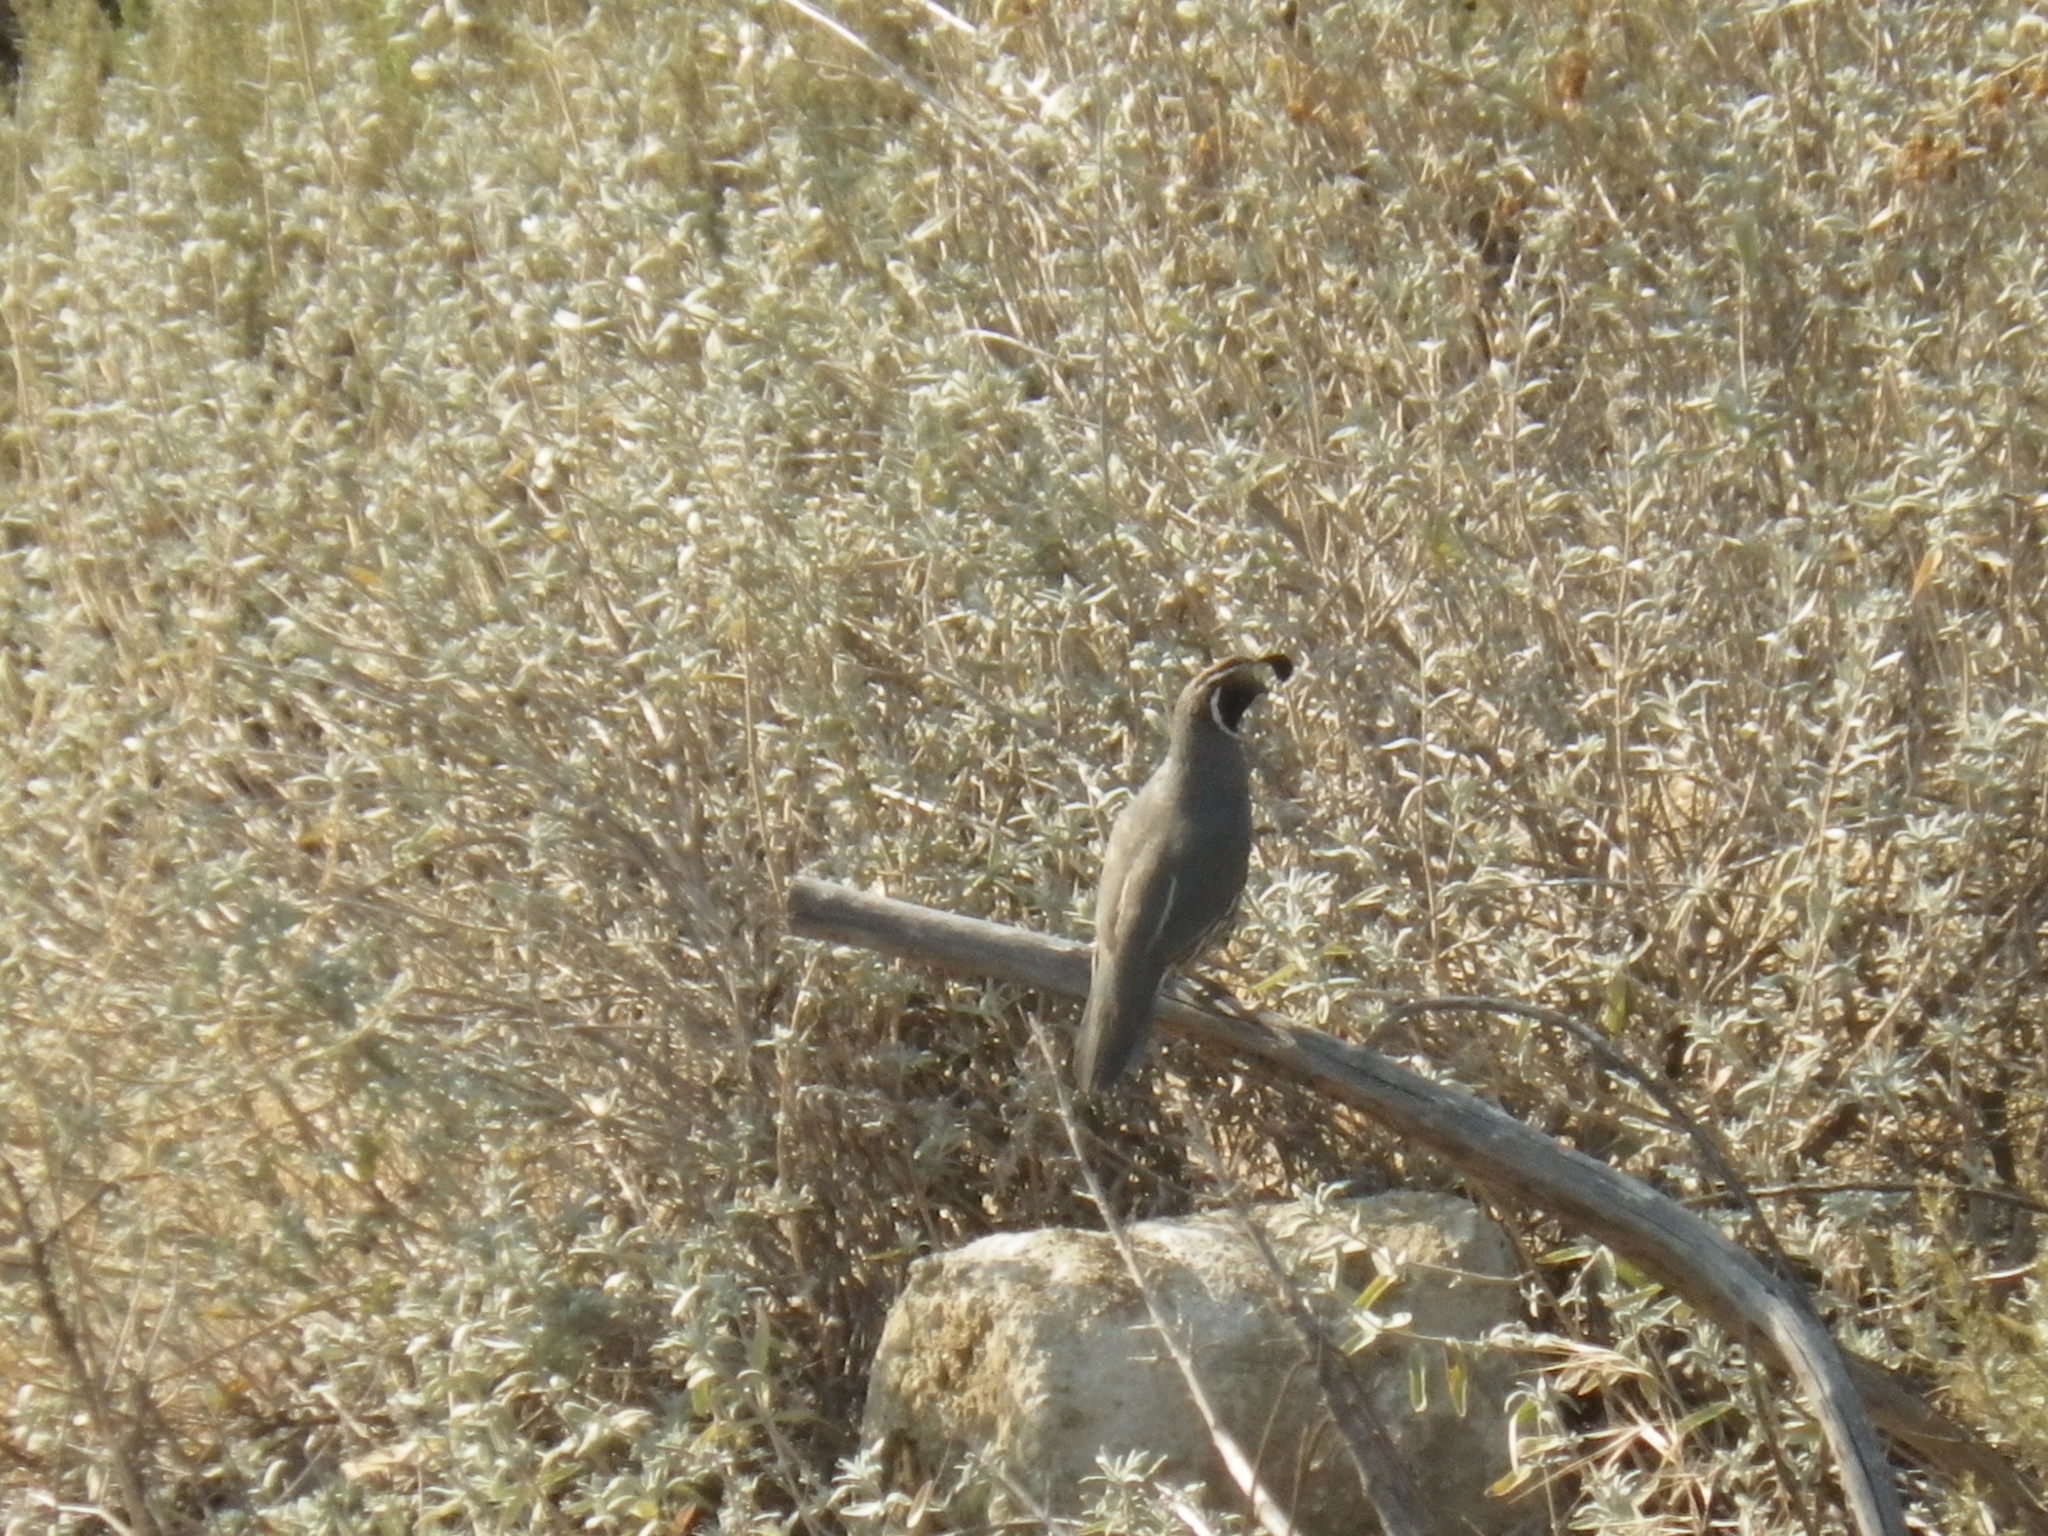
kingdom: Animalia
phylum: Chordata
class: Aves
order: Galliformes
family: Odontophoridae
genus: Callipepla
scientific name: Callipepla californica
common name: California quail
